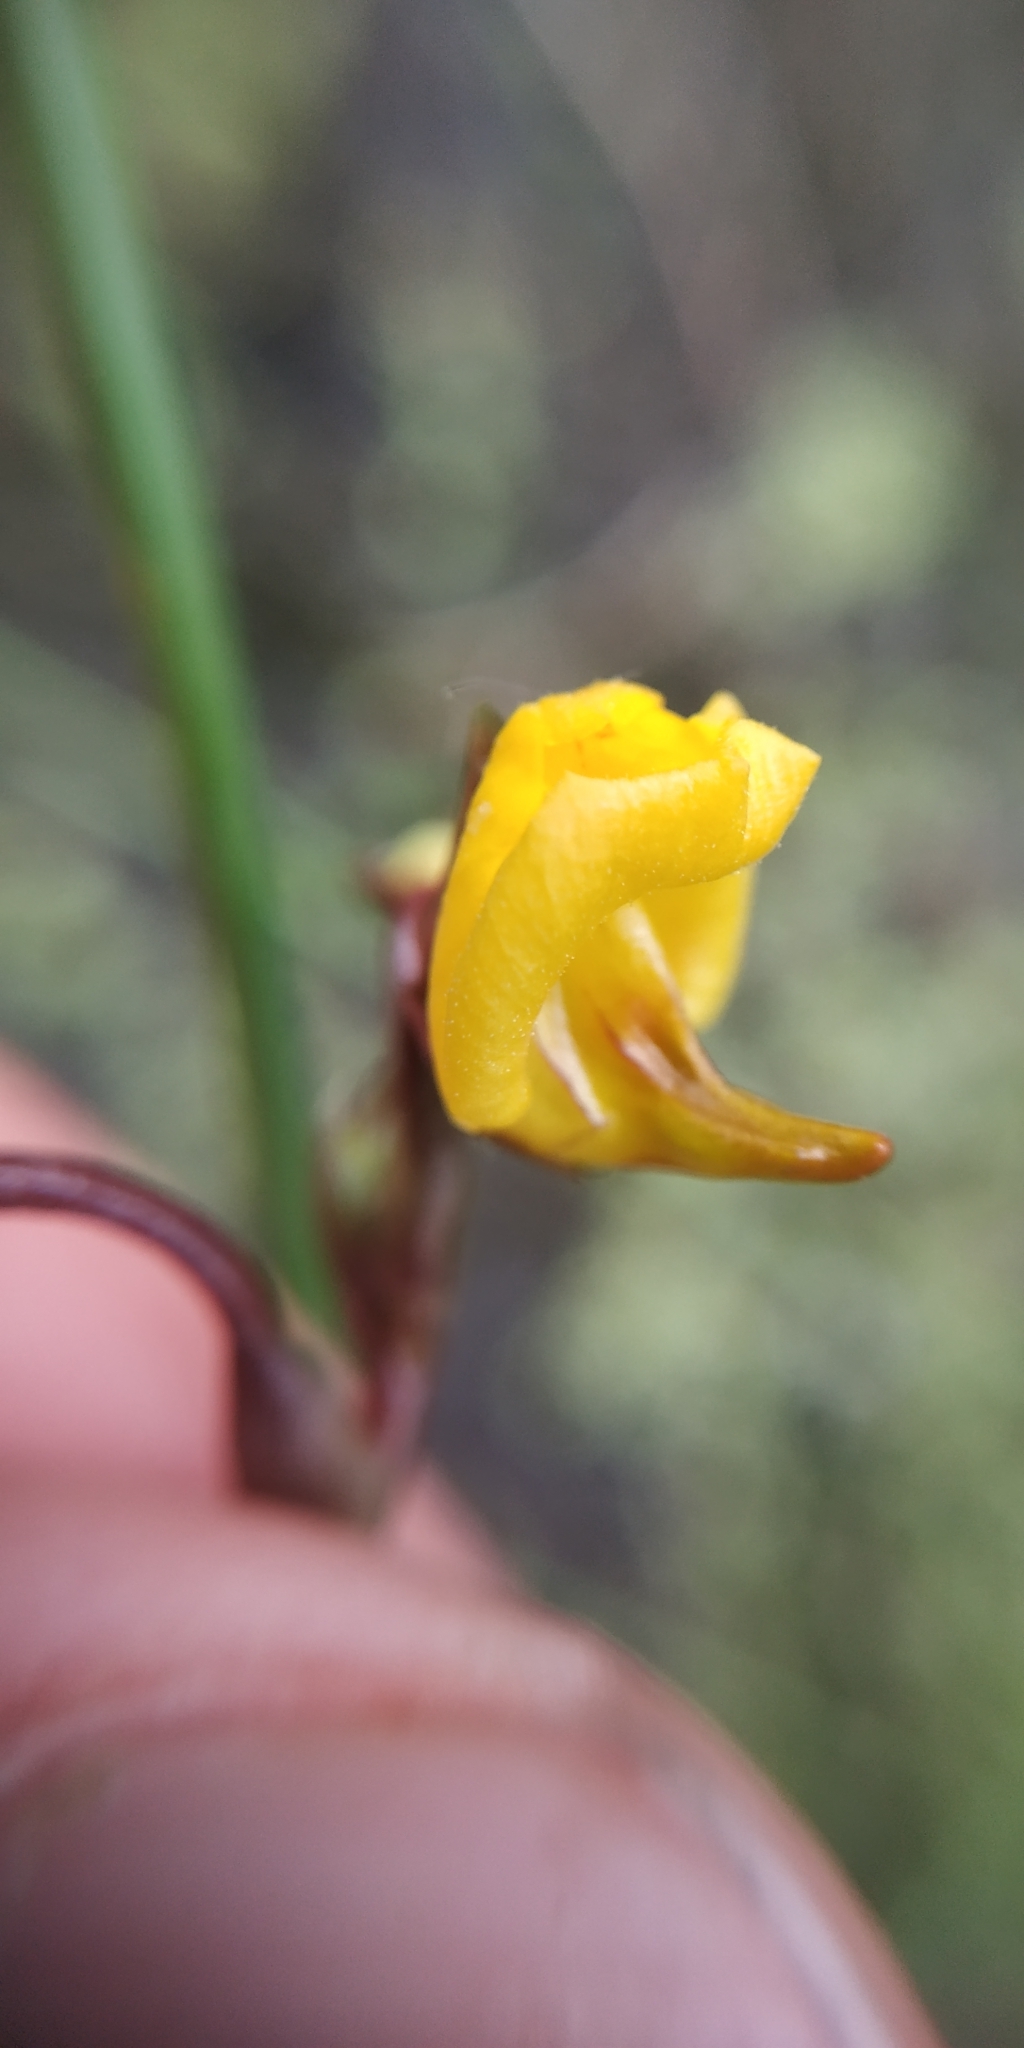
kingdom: Plantae
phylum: Tracheophyta
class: Magnoliopsida
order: Lamiales
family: Lentibulariaceae
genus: Utricularia
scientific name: Utricularia vulgaris
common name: Greater bladderwort
